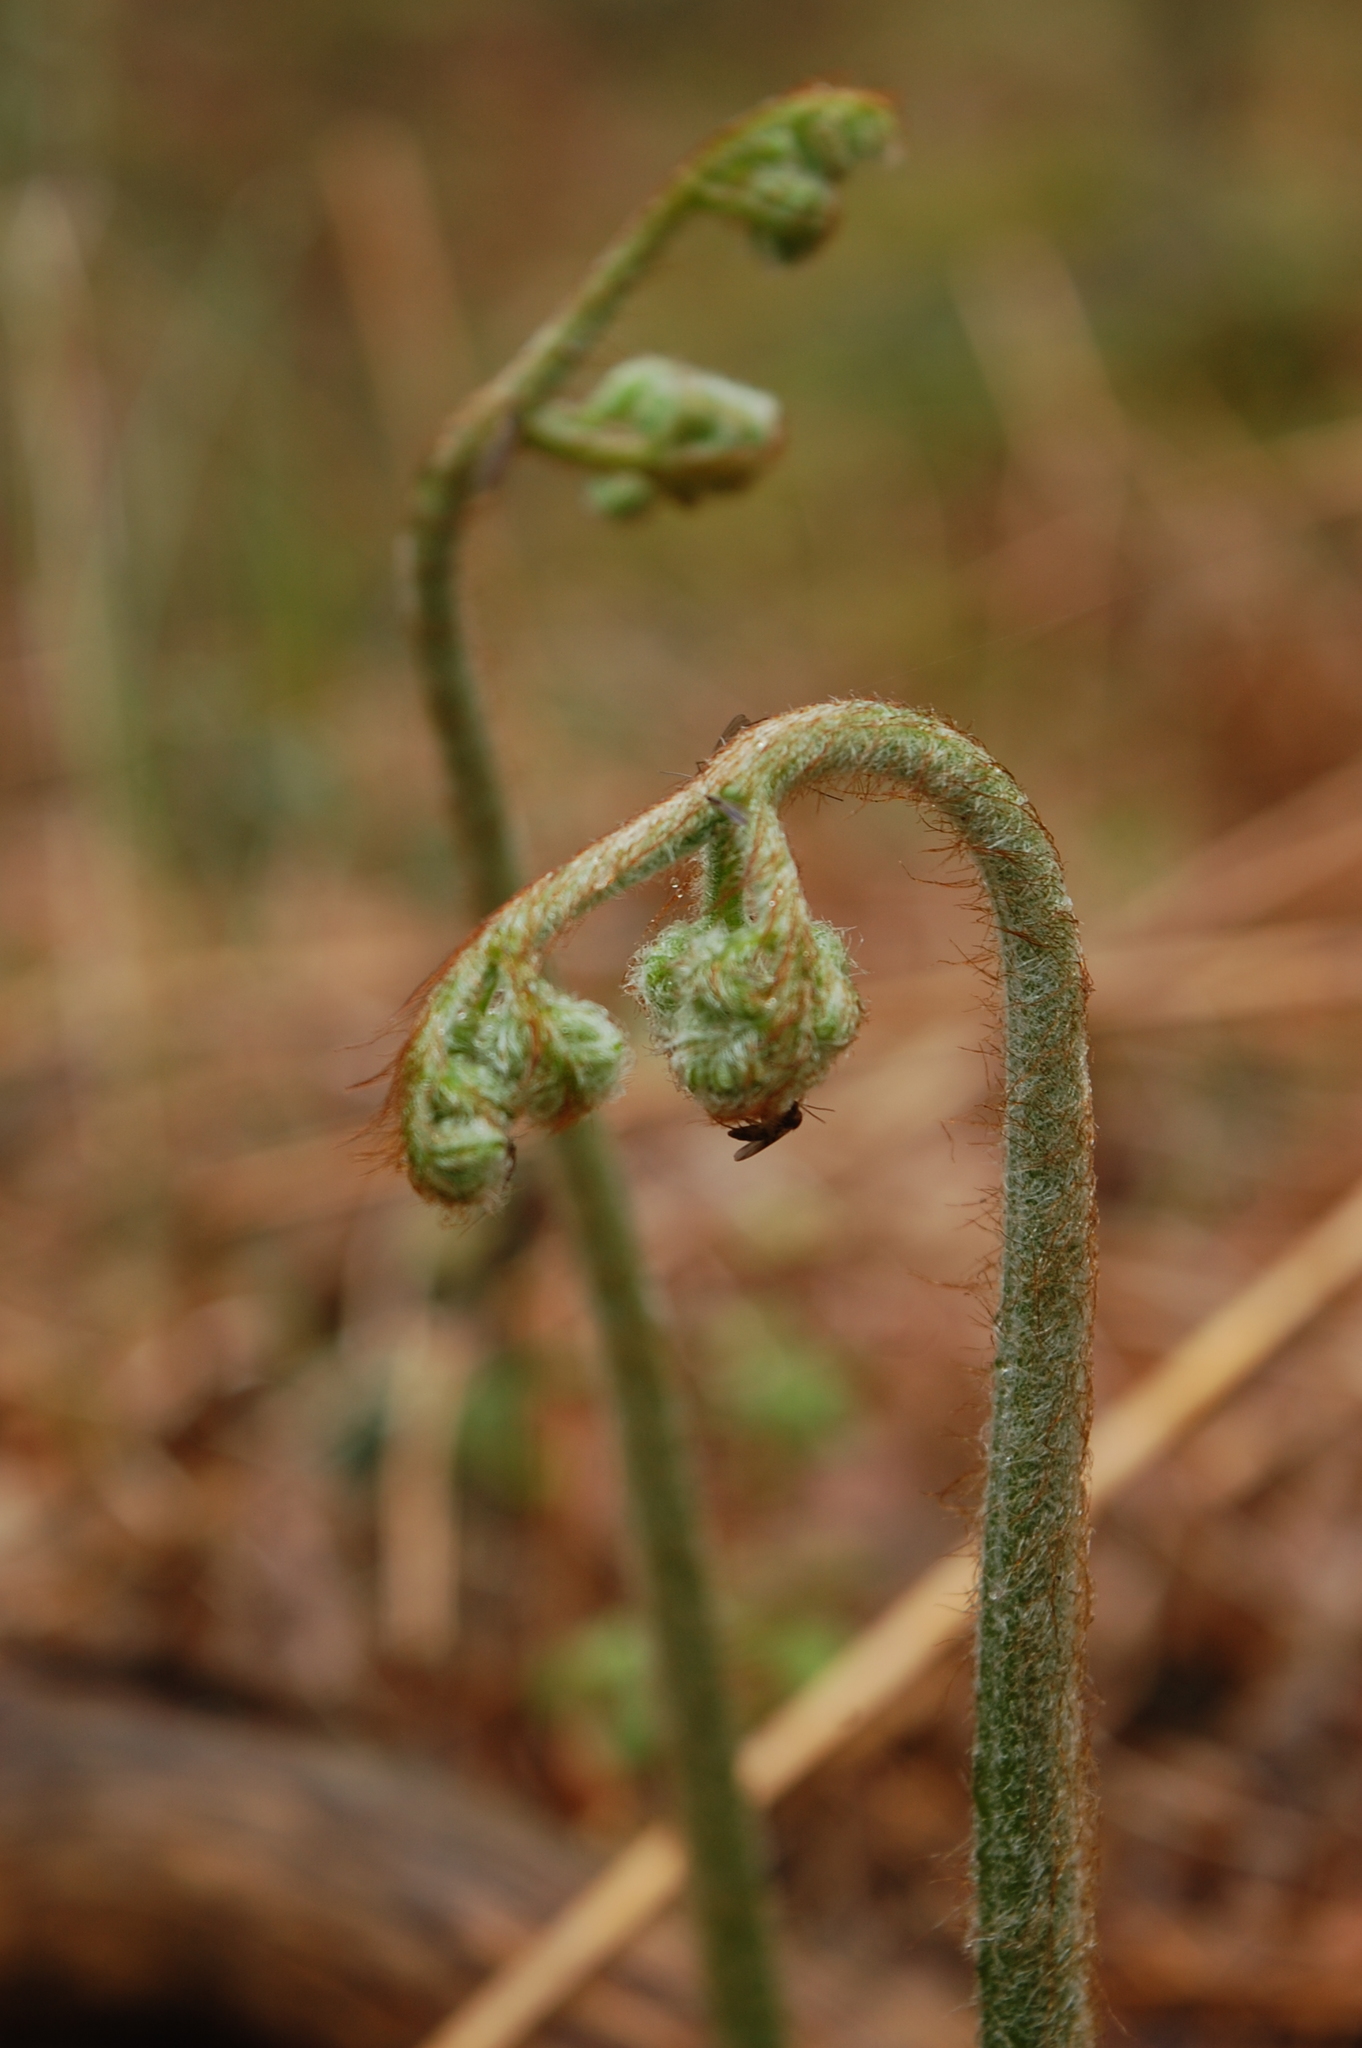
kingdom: Plantae
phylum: Tracheophyta
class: Polypodiopsida
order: Polypodiales
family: Dennstaedtiaceae
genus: Pteridium
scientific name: Pteridium aquilinum
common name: Bracken
